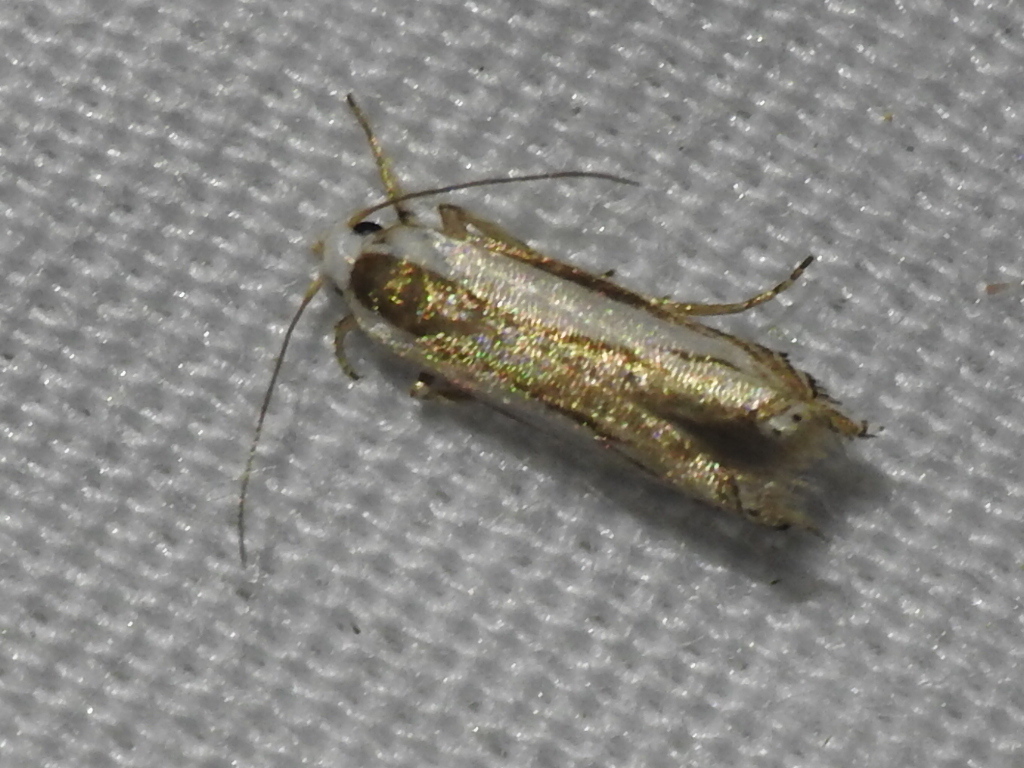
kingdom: Animalia
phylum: Arthropoda
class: Insecta
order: Lepidoptera
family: Gelechiidae
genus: Polyhymno
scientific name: Polyhymno acaciella
